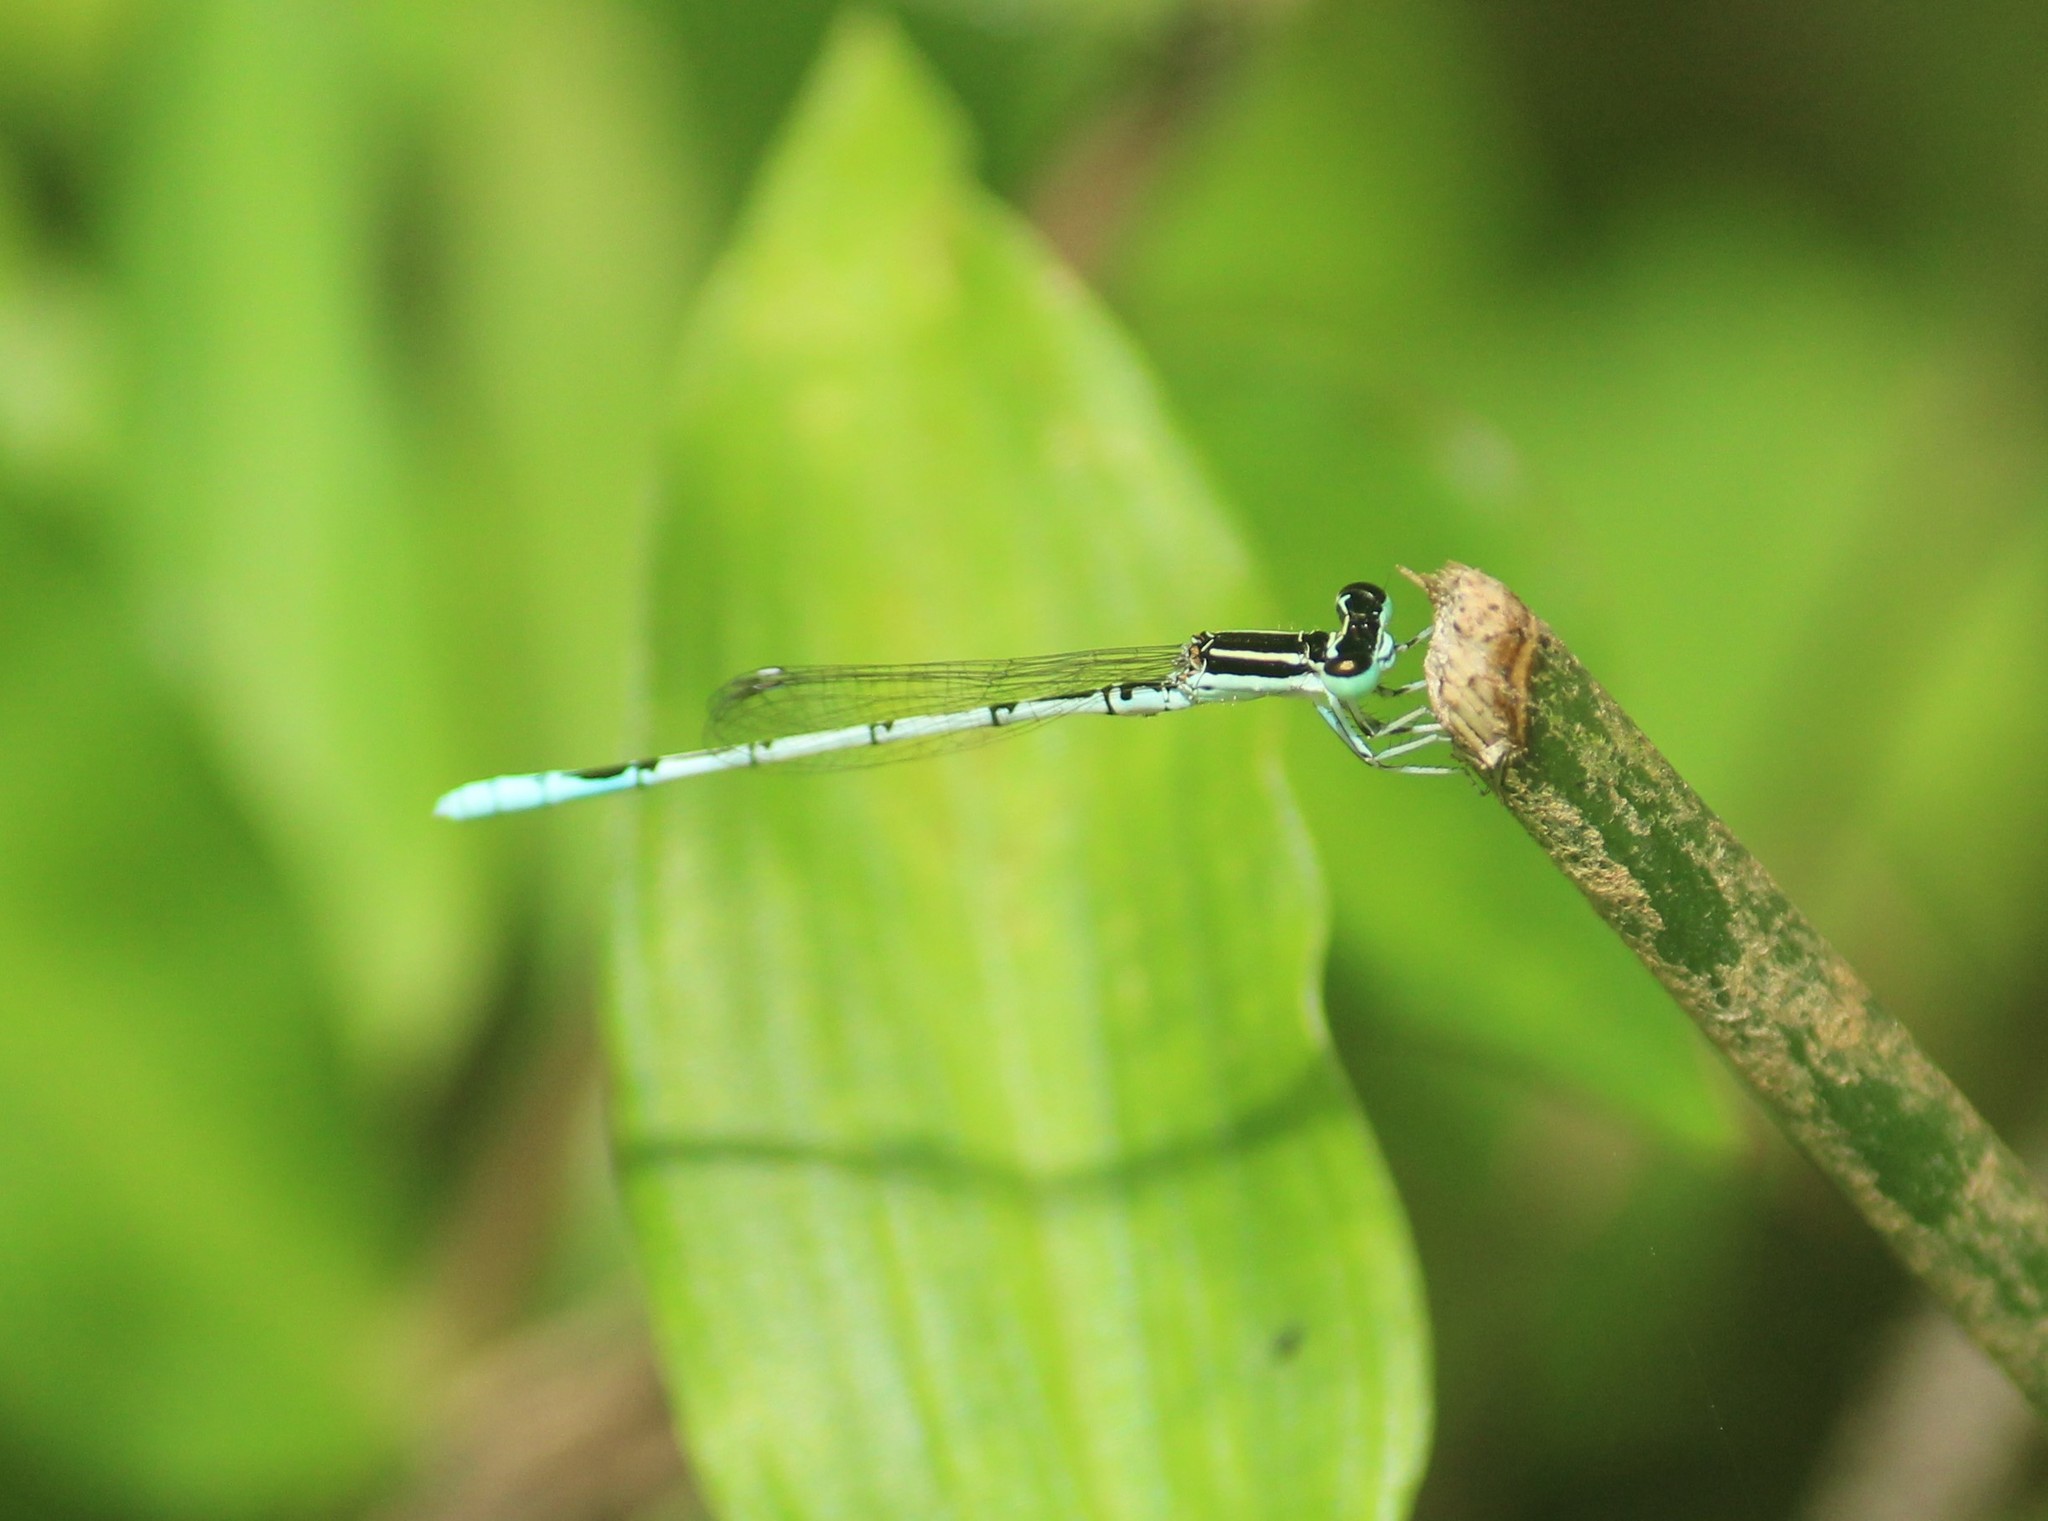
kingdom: Animalia
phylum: Arthropoda
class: Insecta
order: Odonata
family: Coenagrionidae
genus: Agriocnemis
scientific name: Agriocnemis pieris
